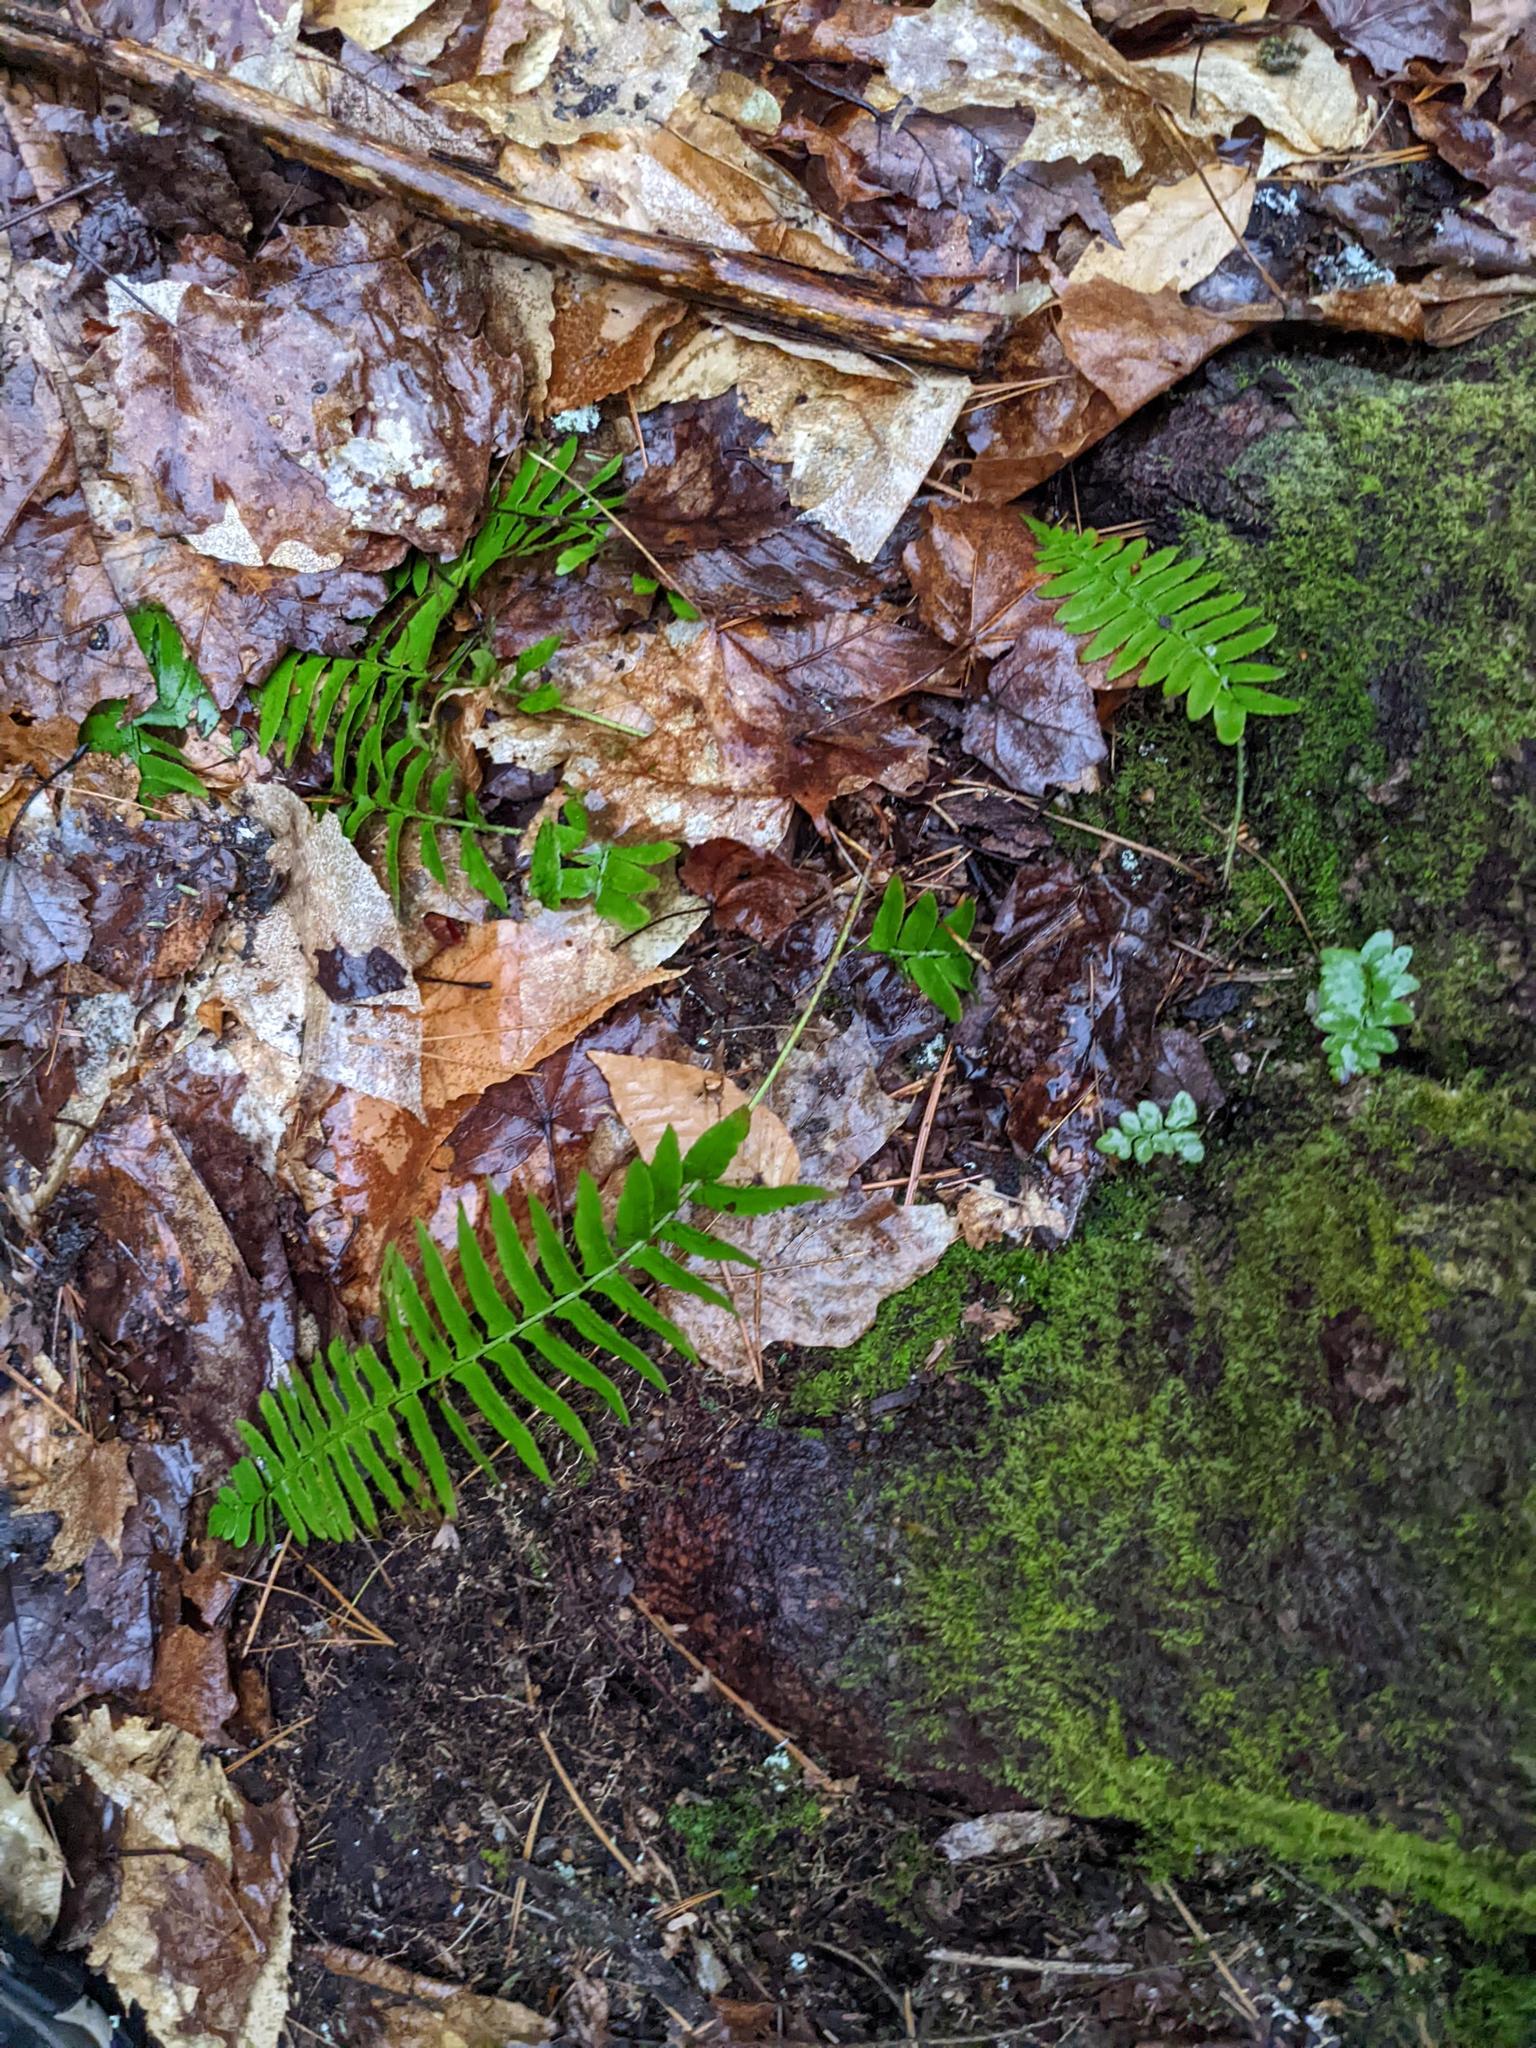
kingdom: Plantae
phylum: Tracheophyta
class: Polypodiopsida
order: Polypodiales
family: Dryopteridaceae
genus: Polystichum
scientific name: Polystichum acrostichoides
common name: Christmas fern
